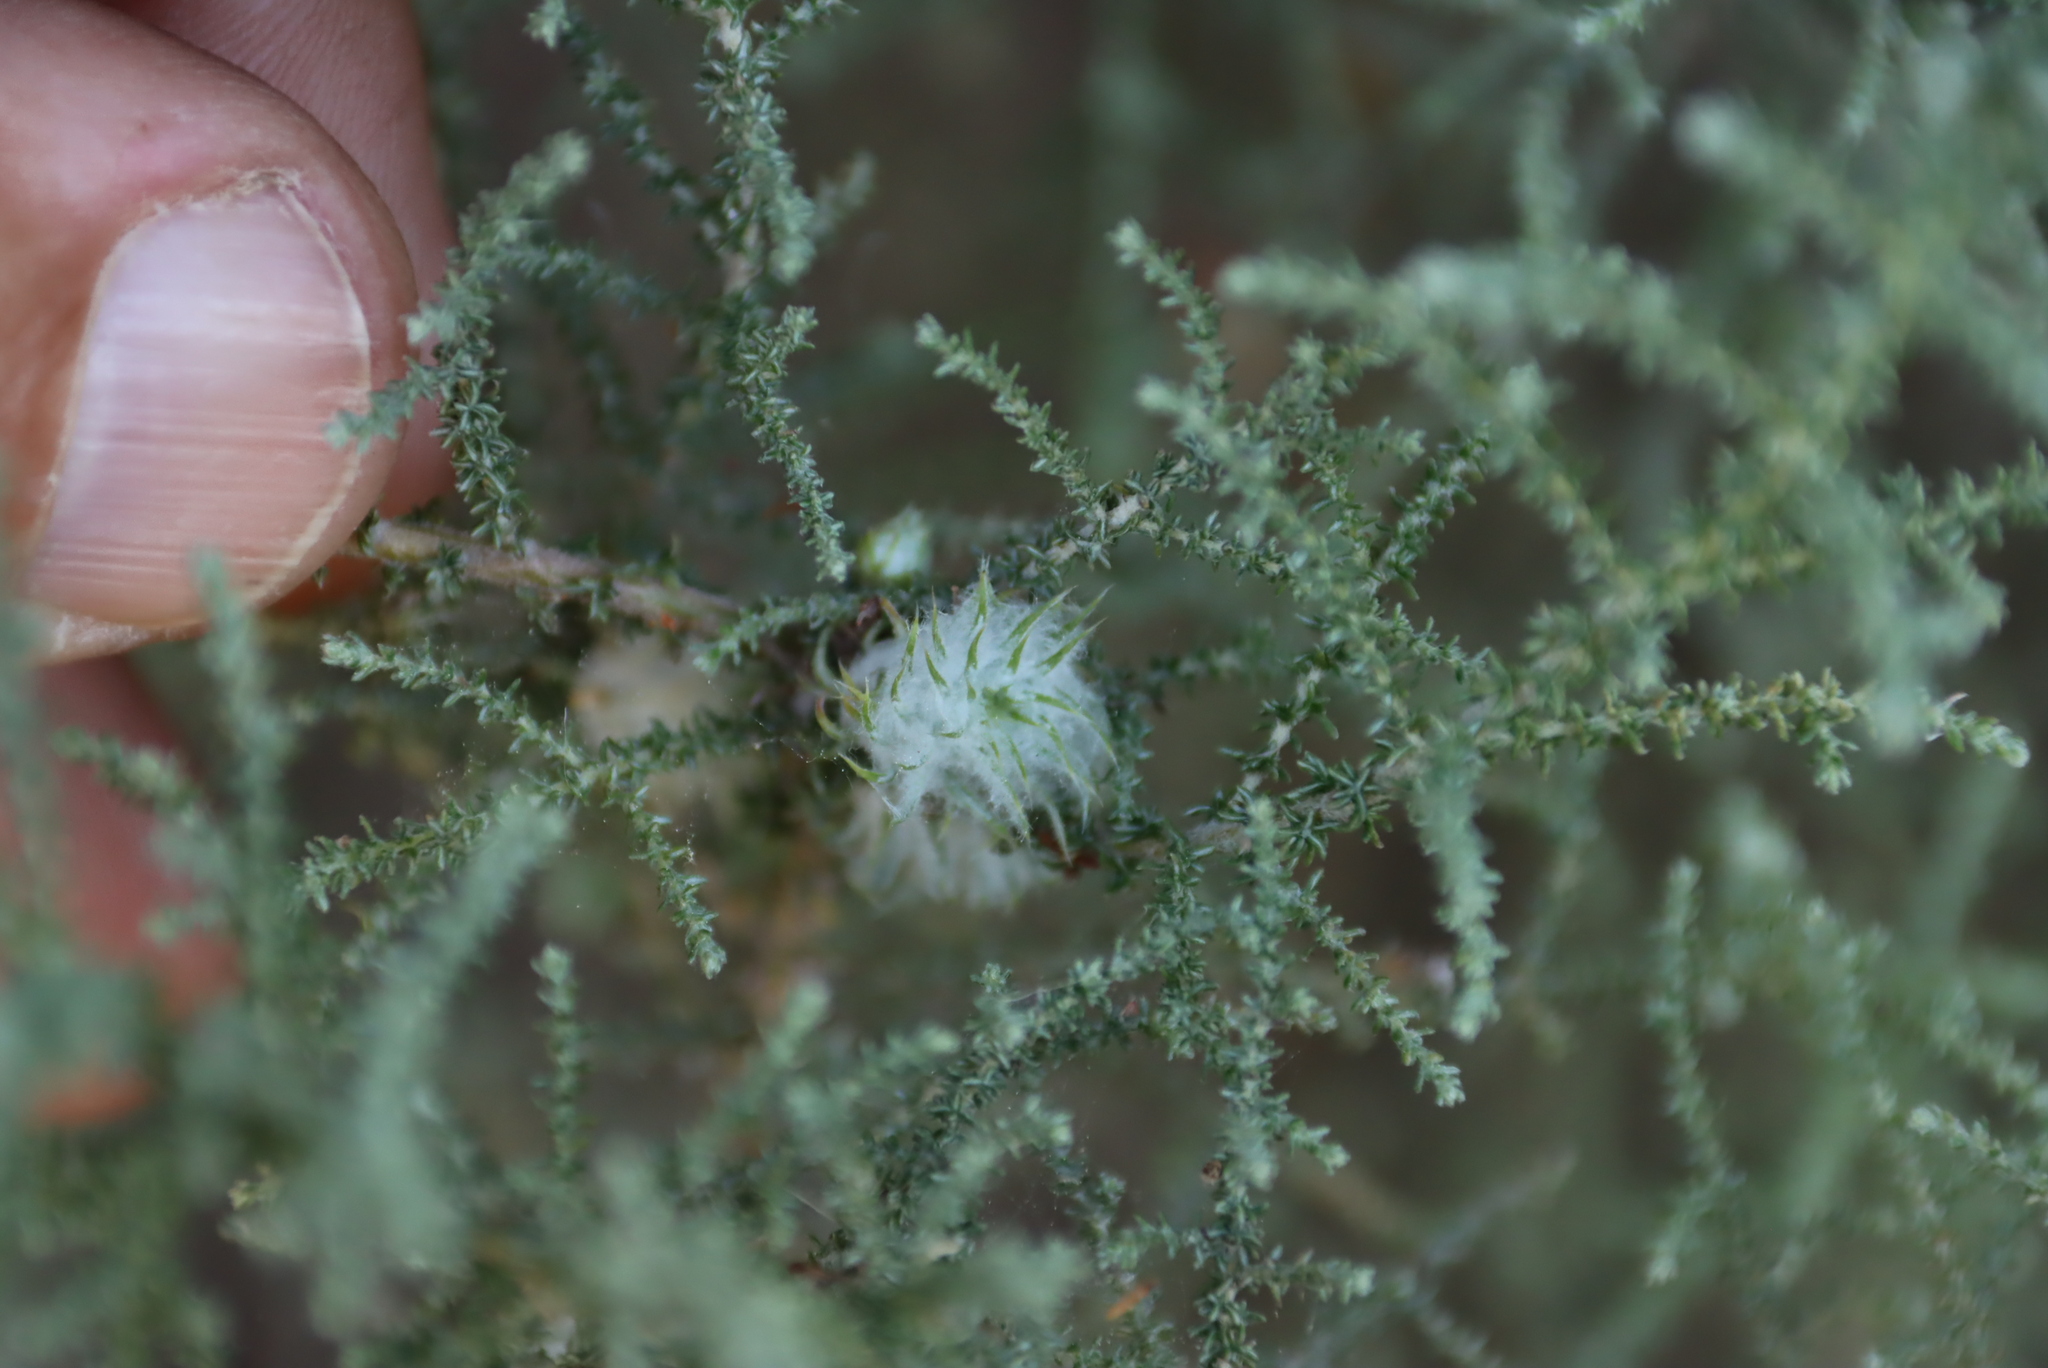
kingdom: Plantae
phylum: Tracheophyta
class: Magnoliopsida
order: Asterales
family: Asteraceae
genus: Seriphium
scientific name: Seriphium plumosum
